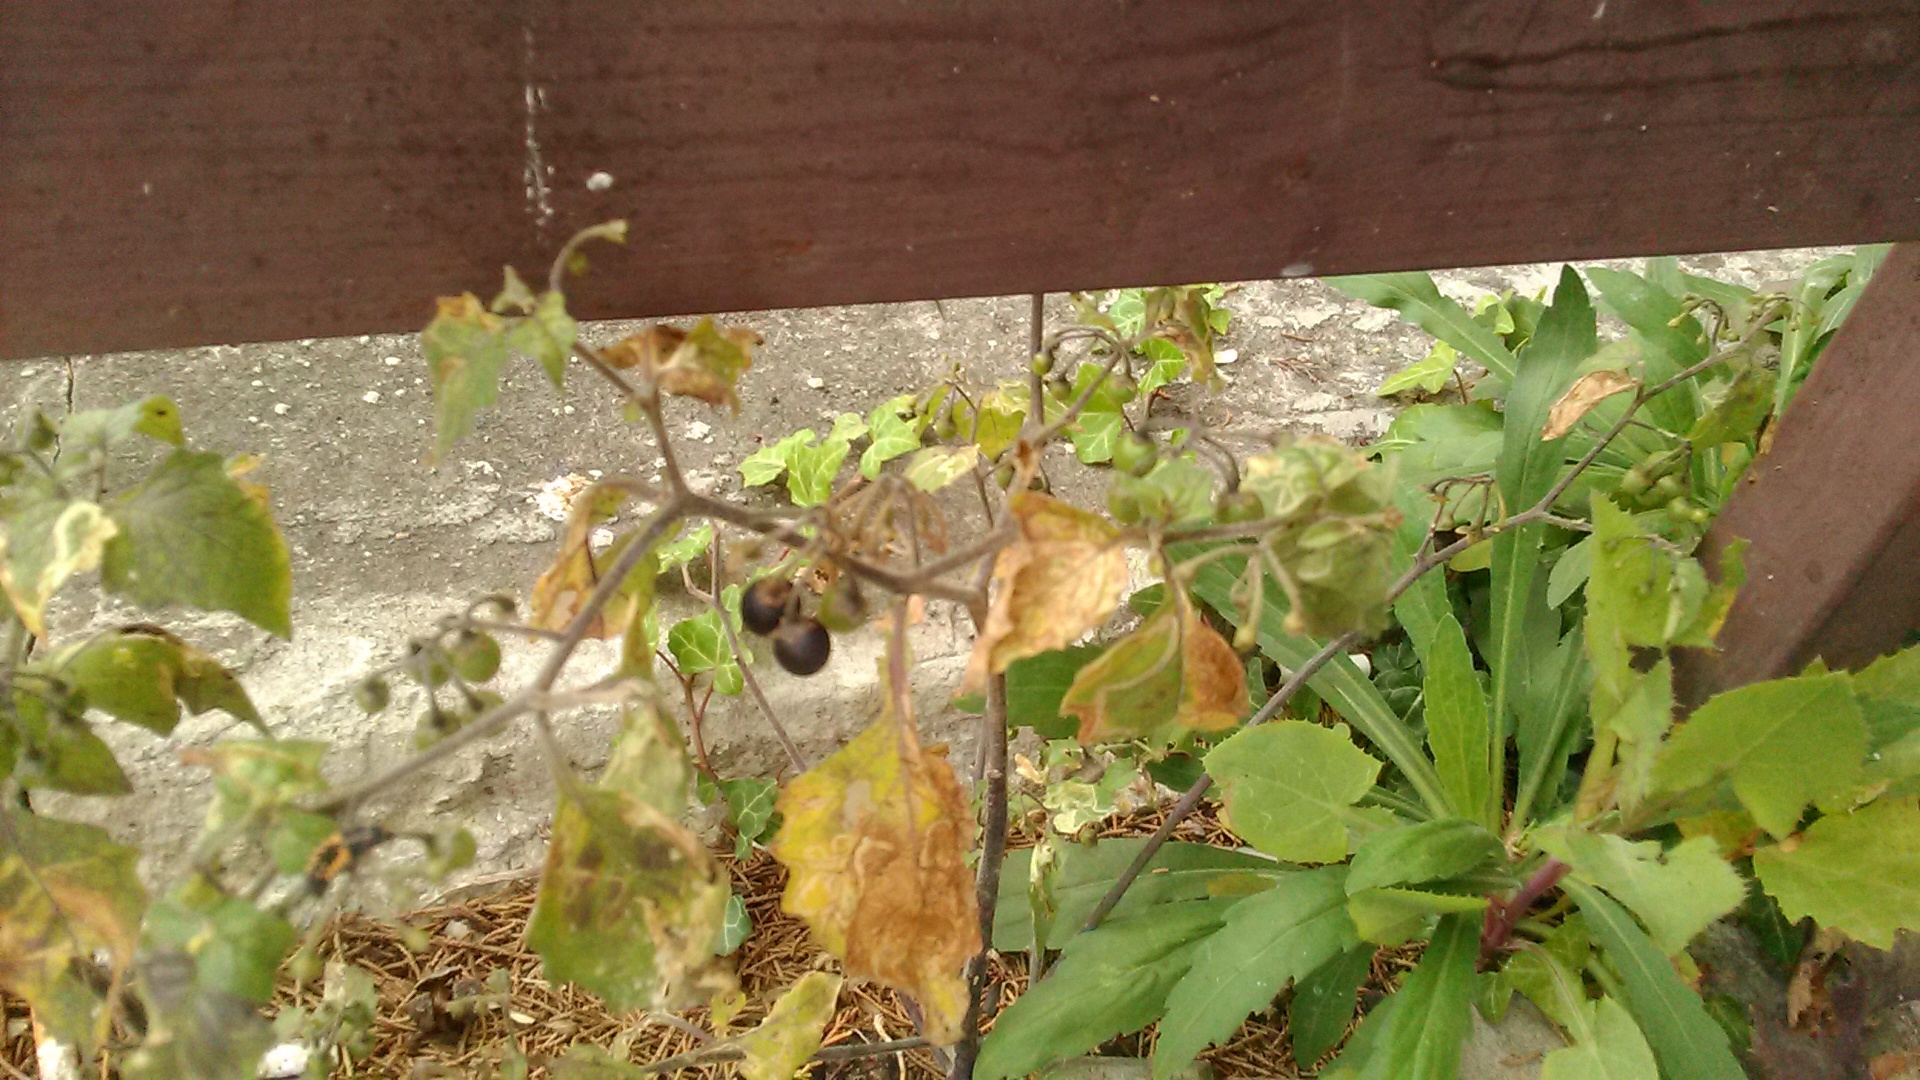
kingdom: Plantae
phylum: Tracheophyta
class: Magnoliopsida
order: Solanales
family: Solanaceae
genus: Solanum
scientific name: Solanum nigrum
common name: Black nightshade
